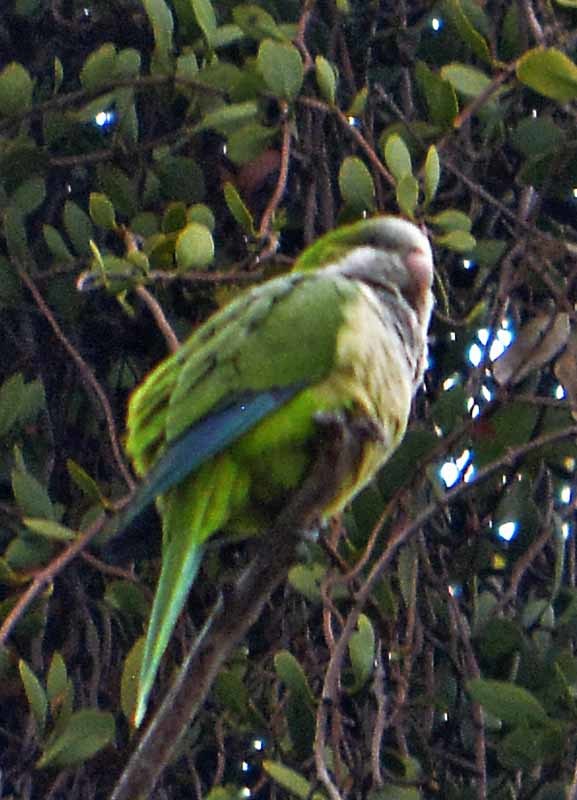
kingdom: Animalia
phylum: Chordata
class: Aves
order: Psittaciformes
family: Psittacidae
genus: Myiopsitta
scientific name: Myiopsitta monachus
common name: Monk parakeet
